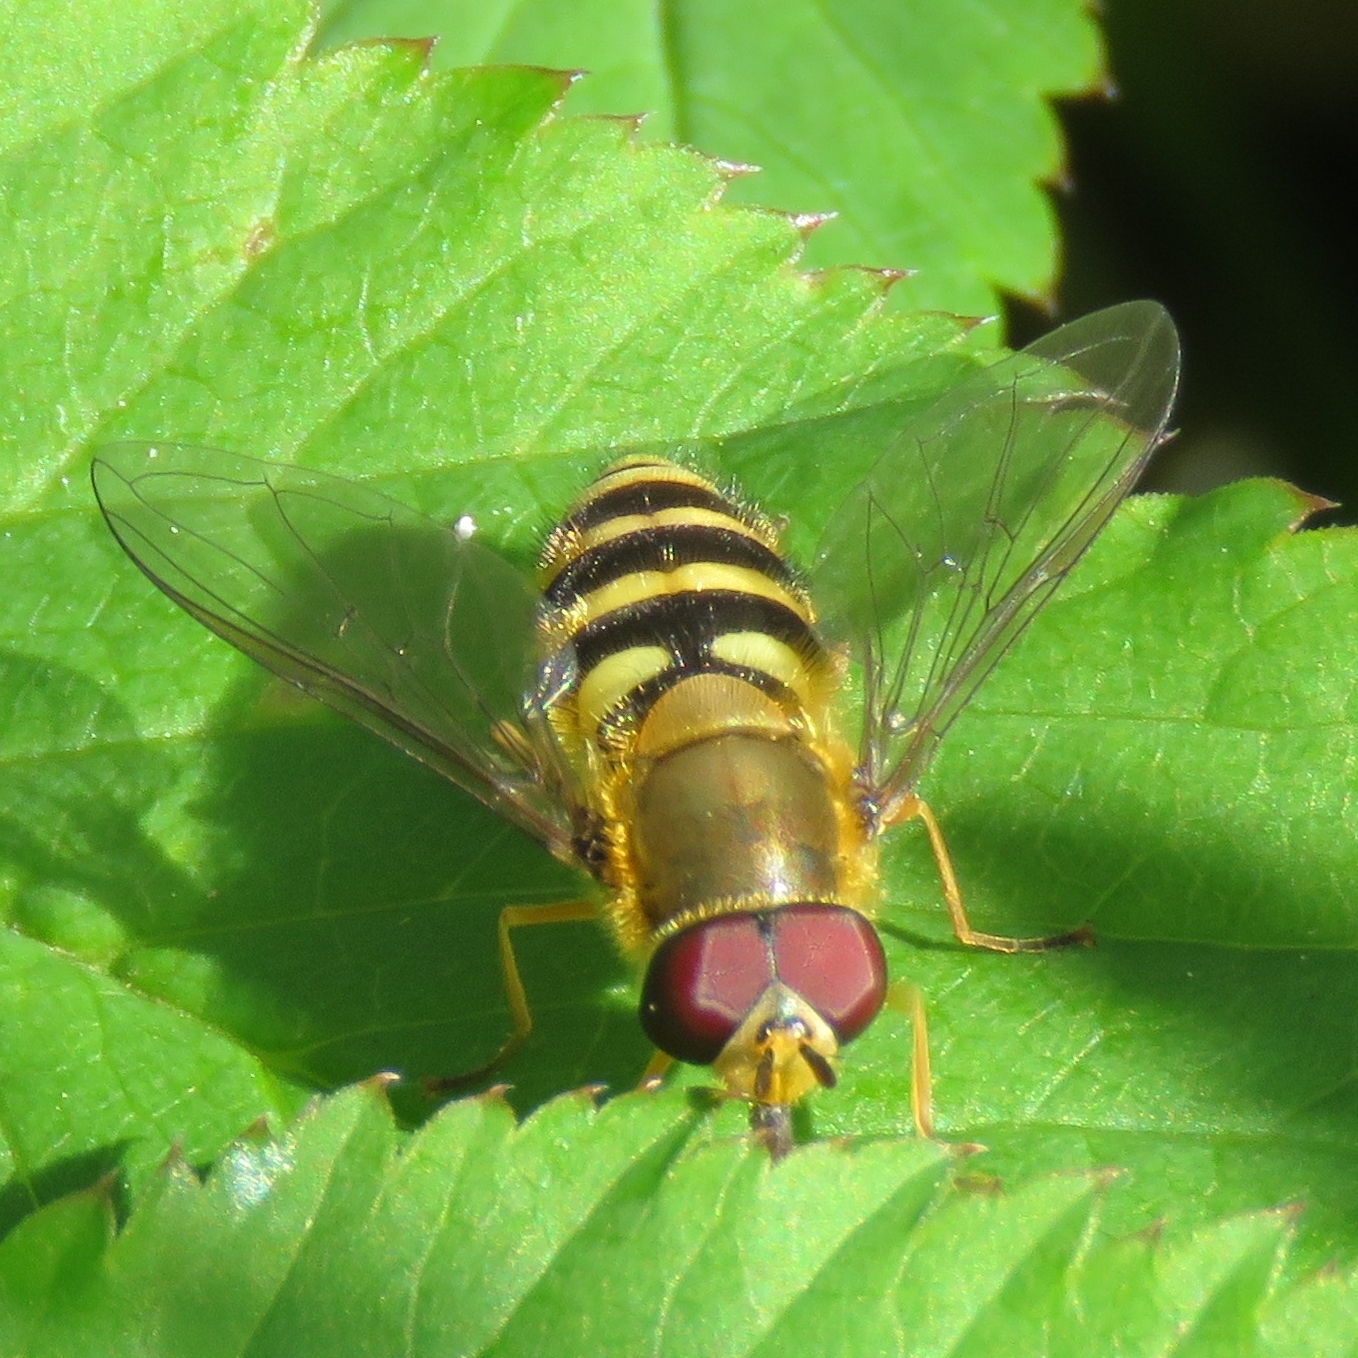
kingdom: Animalia
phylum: Arthropoda
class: Insecta
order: Diptera
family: Syrphidae
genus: Syrphus
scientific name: Syrphus
